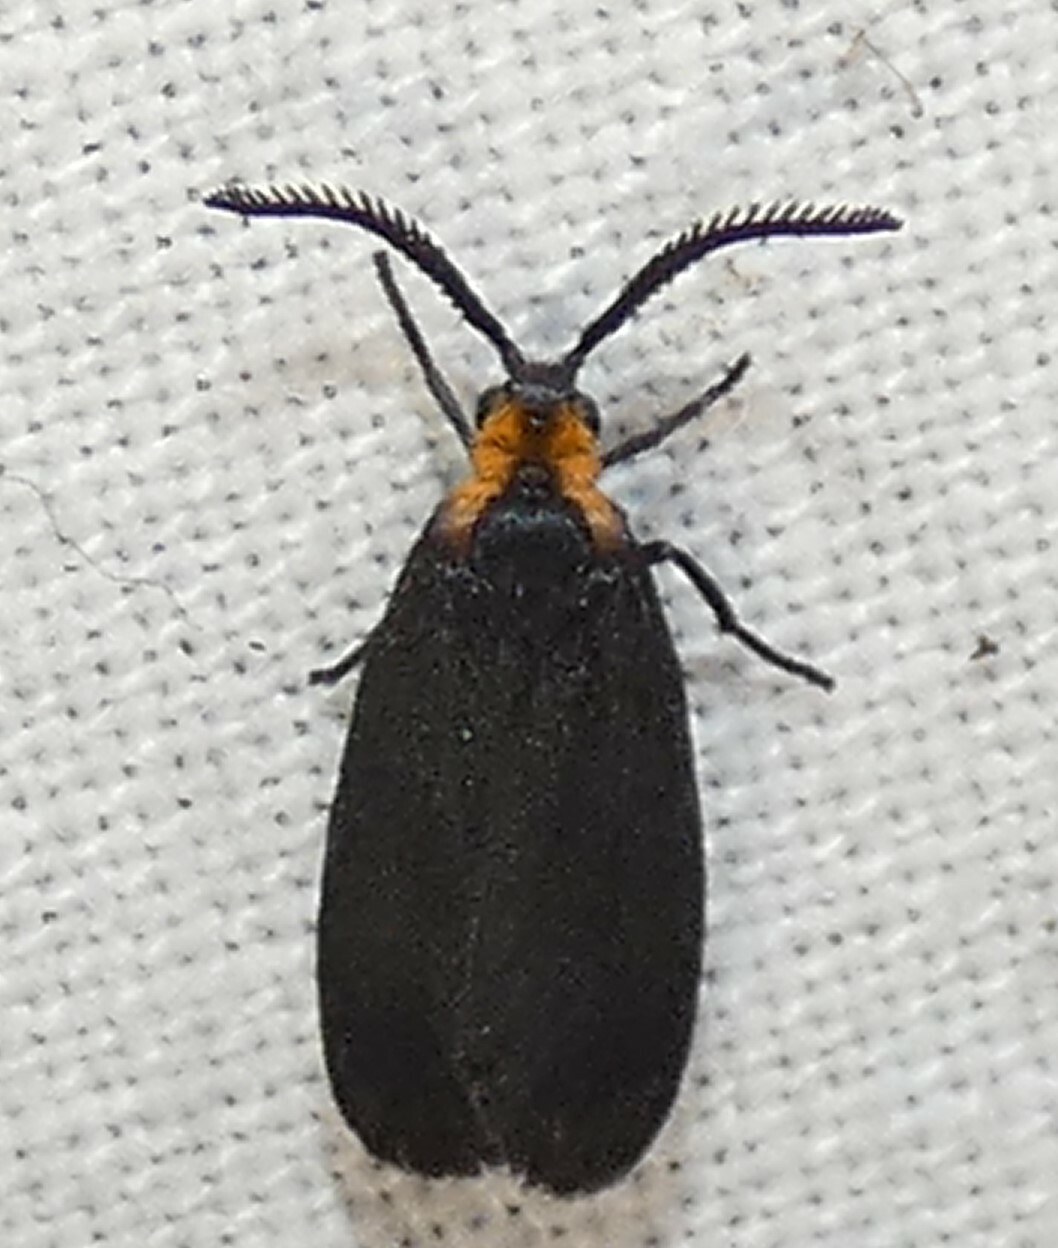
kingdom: Animalia
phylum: Arthropoda
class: Insecta
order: Lepidoptera
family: Zygaenidae
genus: Acoloithus
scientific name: Acoloithus falsarius
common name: Clemens' false skeletonizer
